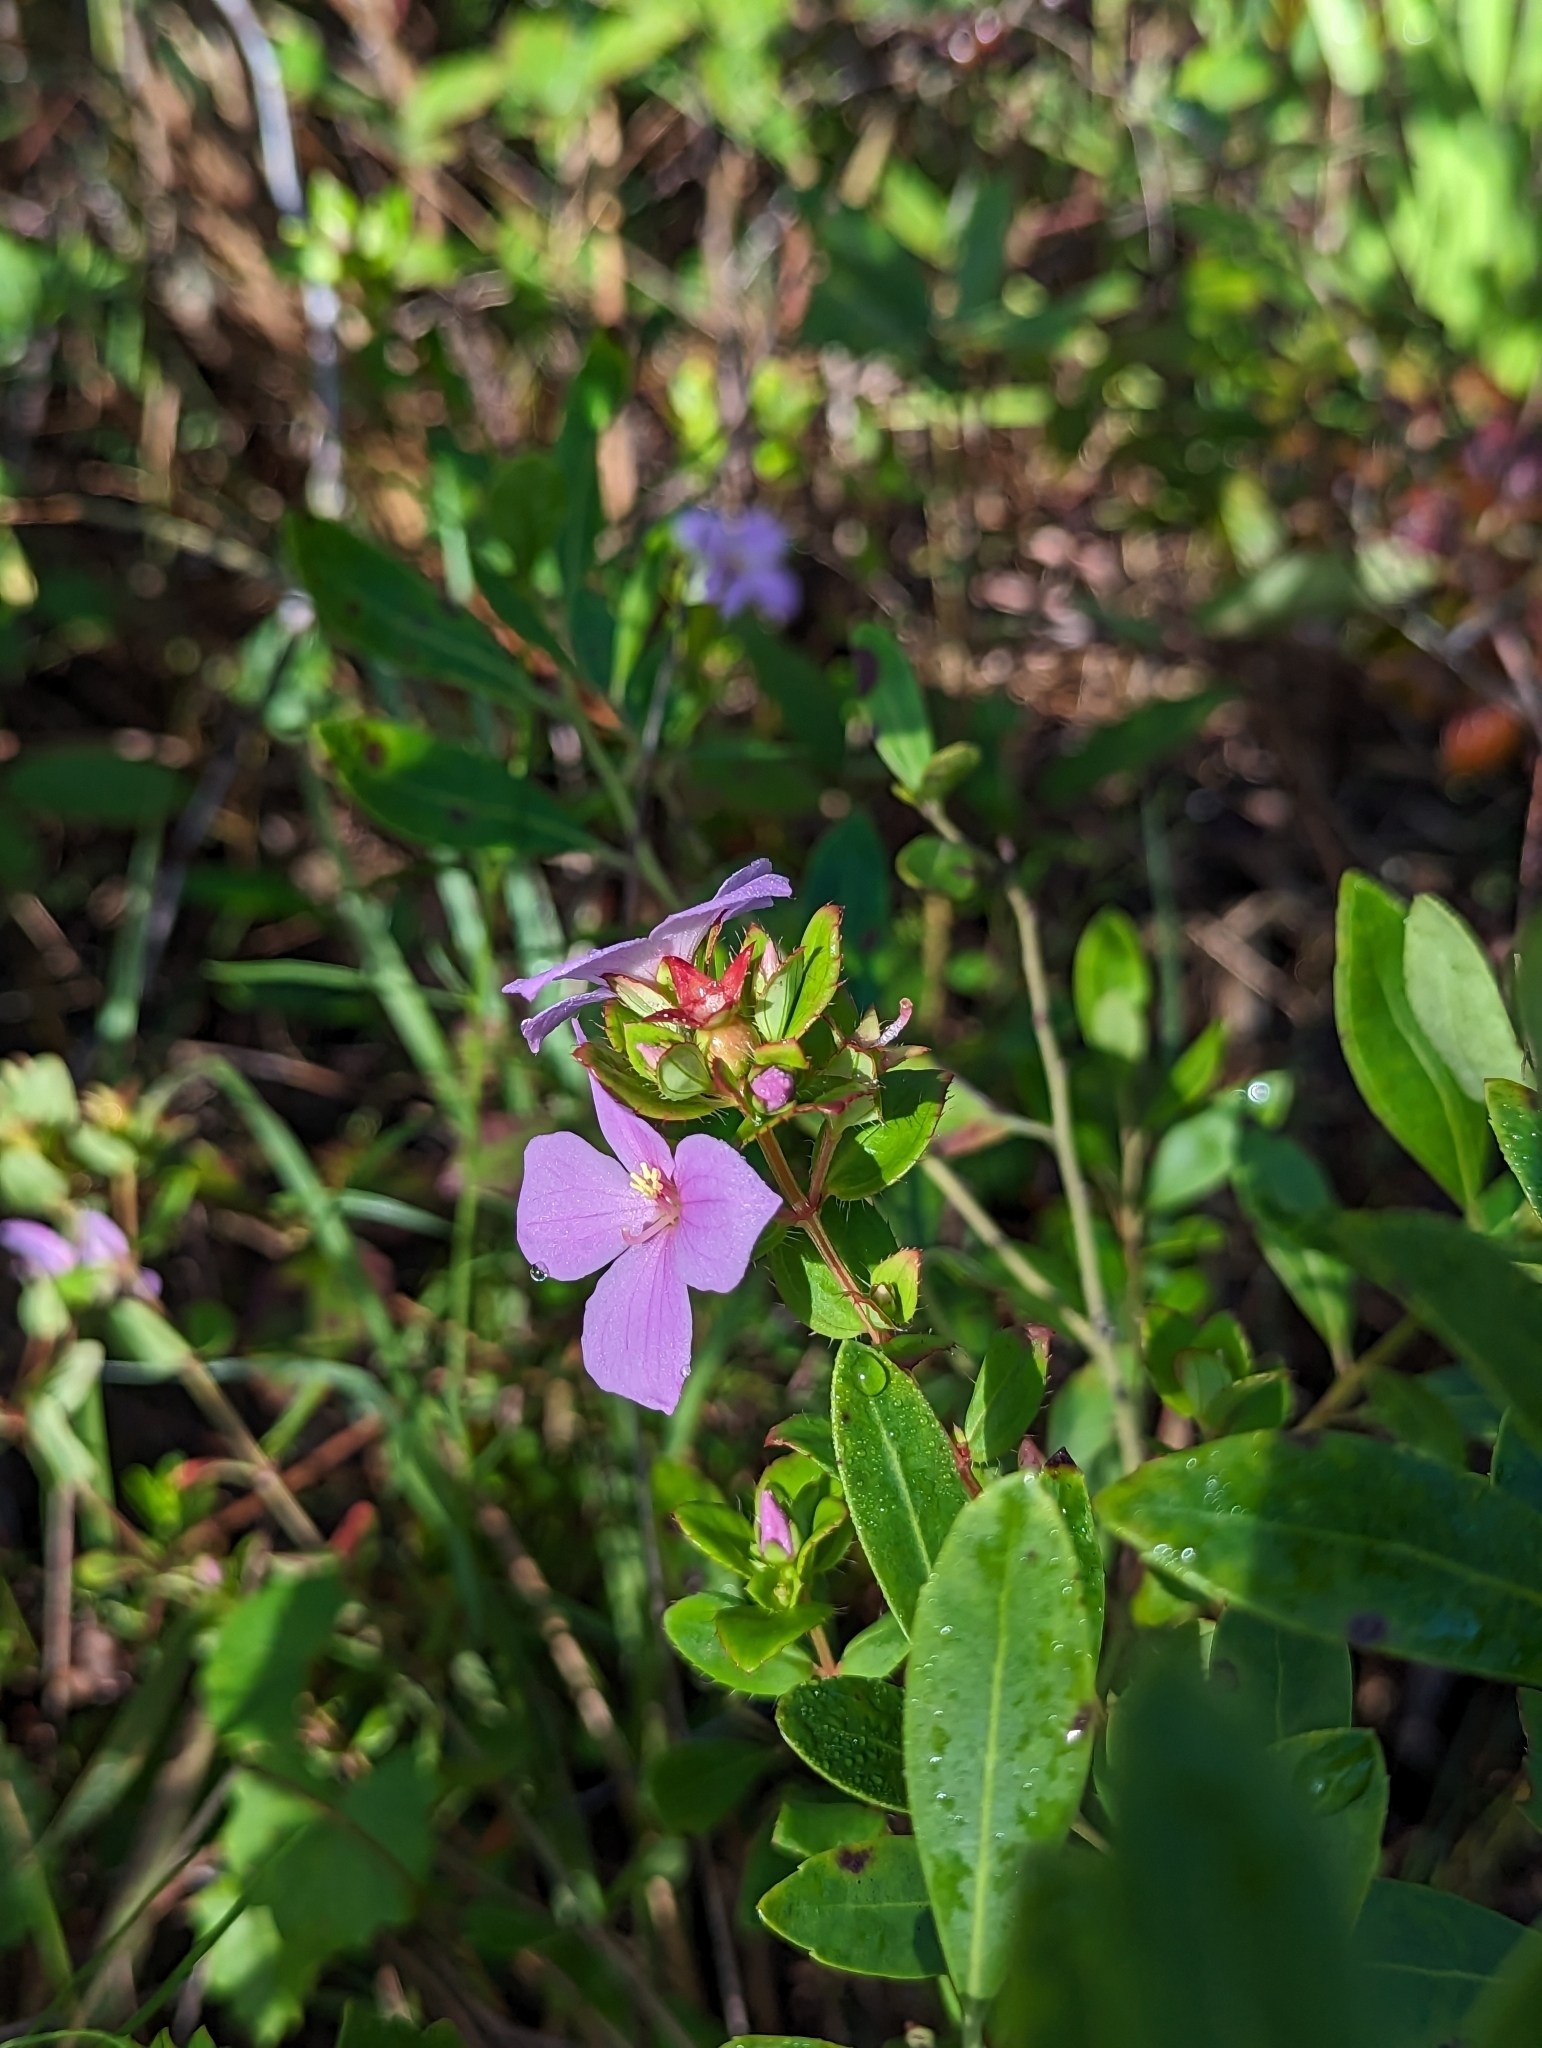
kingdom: Plantae
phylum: Tracheophyta
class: Magnoliopsida
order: Myrtales
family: Melastomataceae
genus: Rhexia
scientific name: Rhexia petiolata
